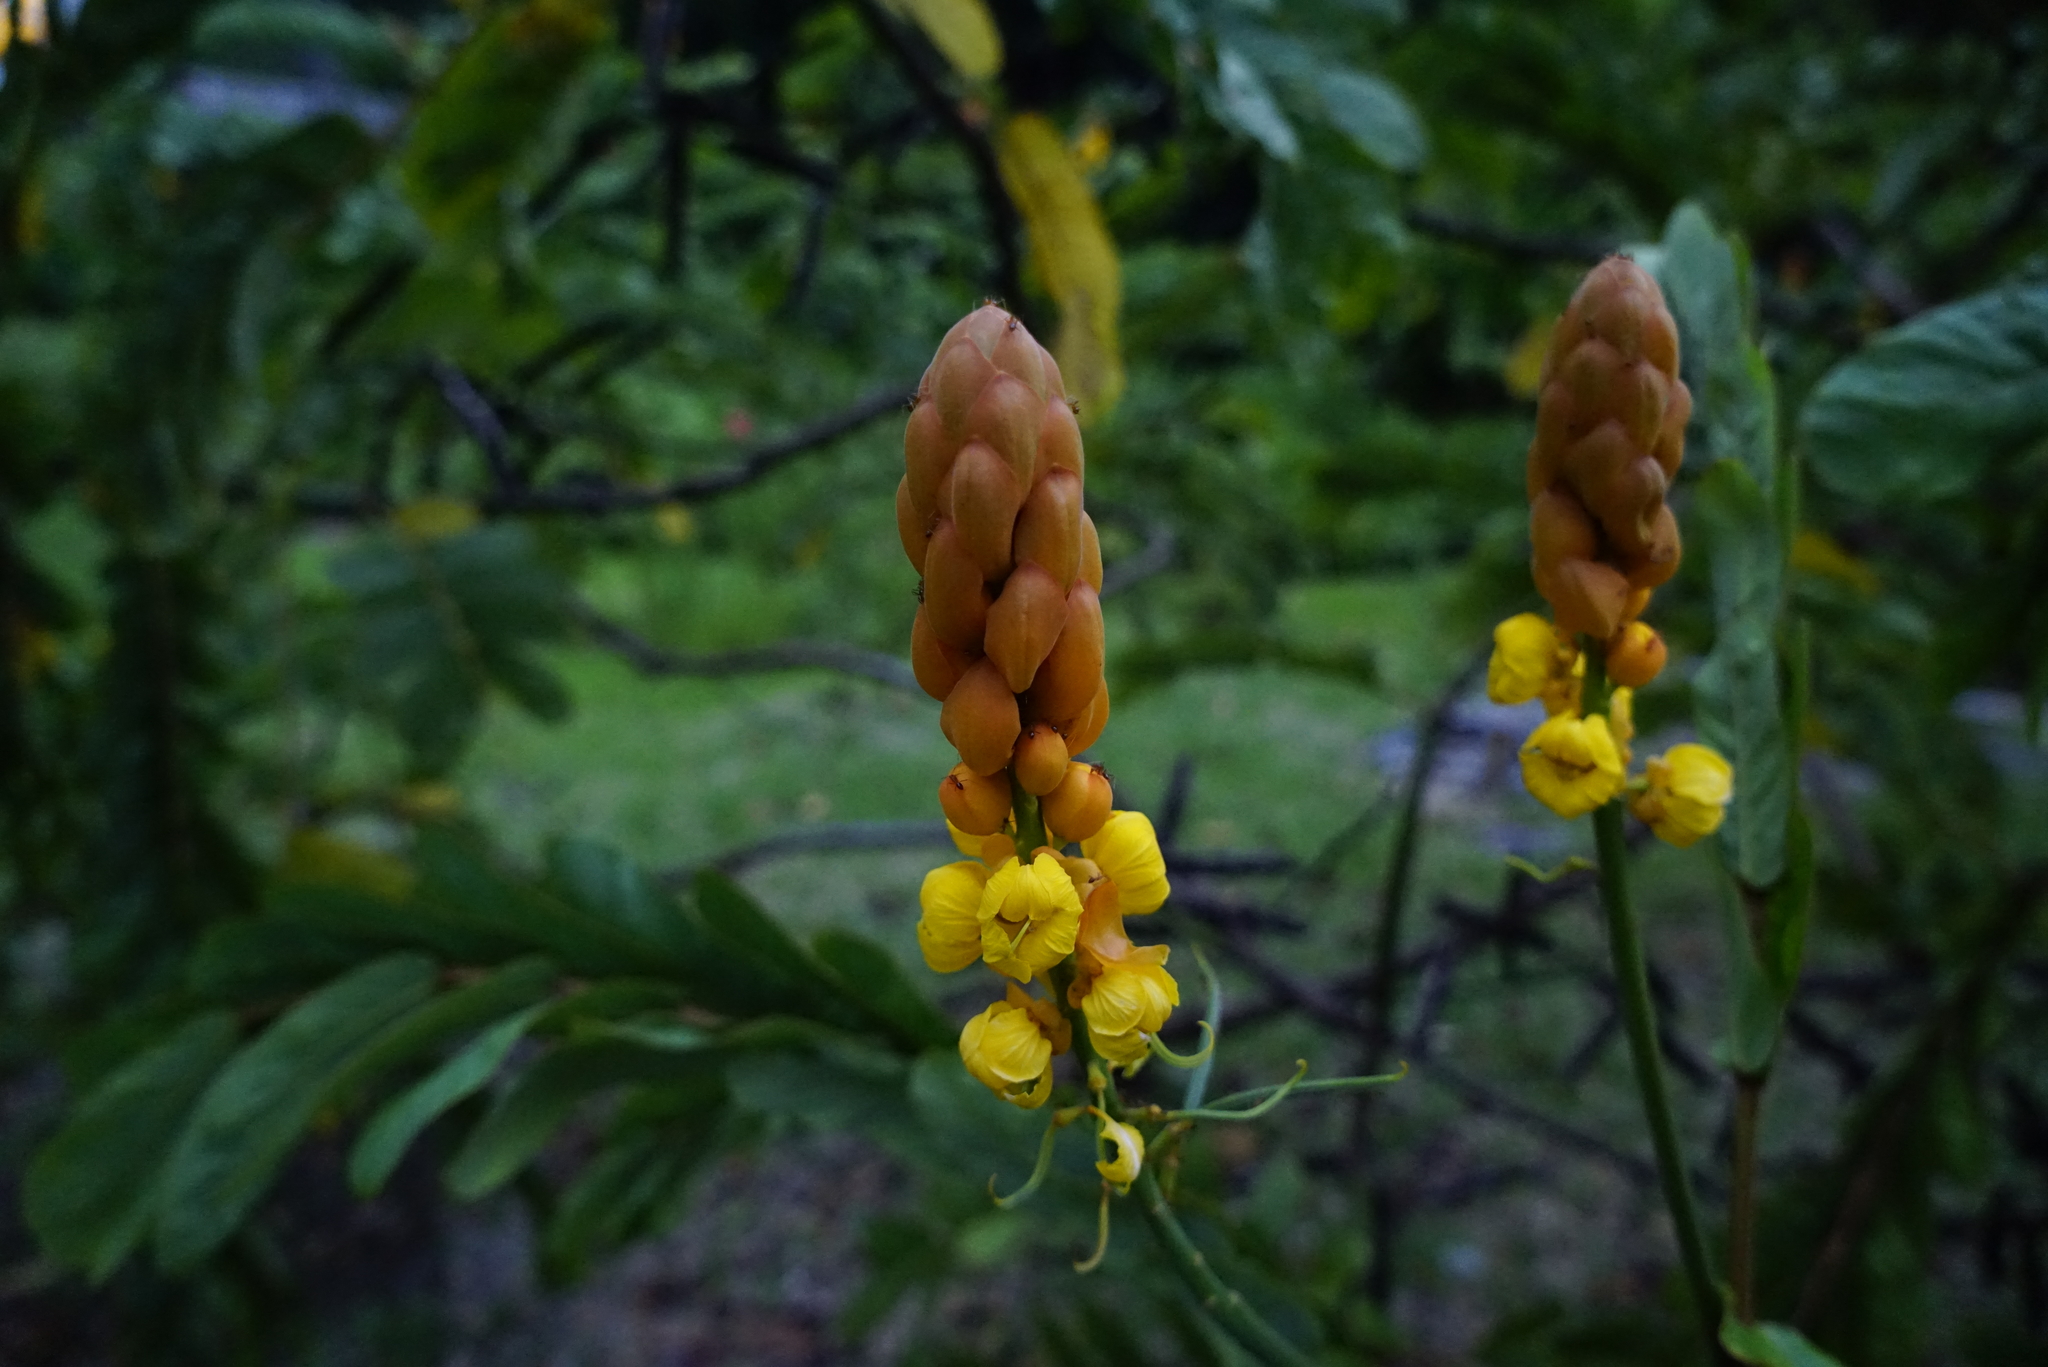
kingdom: Plantae
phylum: Tracheophyta
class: Magnoliopsida
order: Fabales
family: Fabaceae
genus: Senna
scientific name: Senna alata
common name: Emperor's candlesticks
